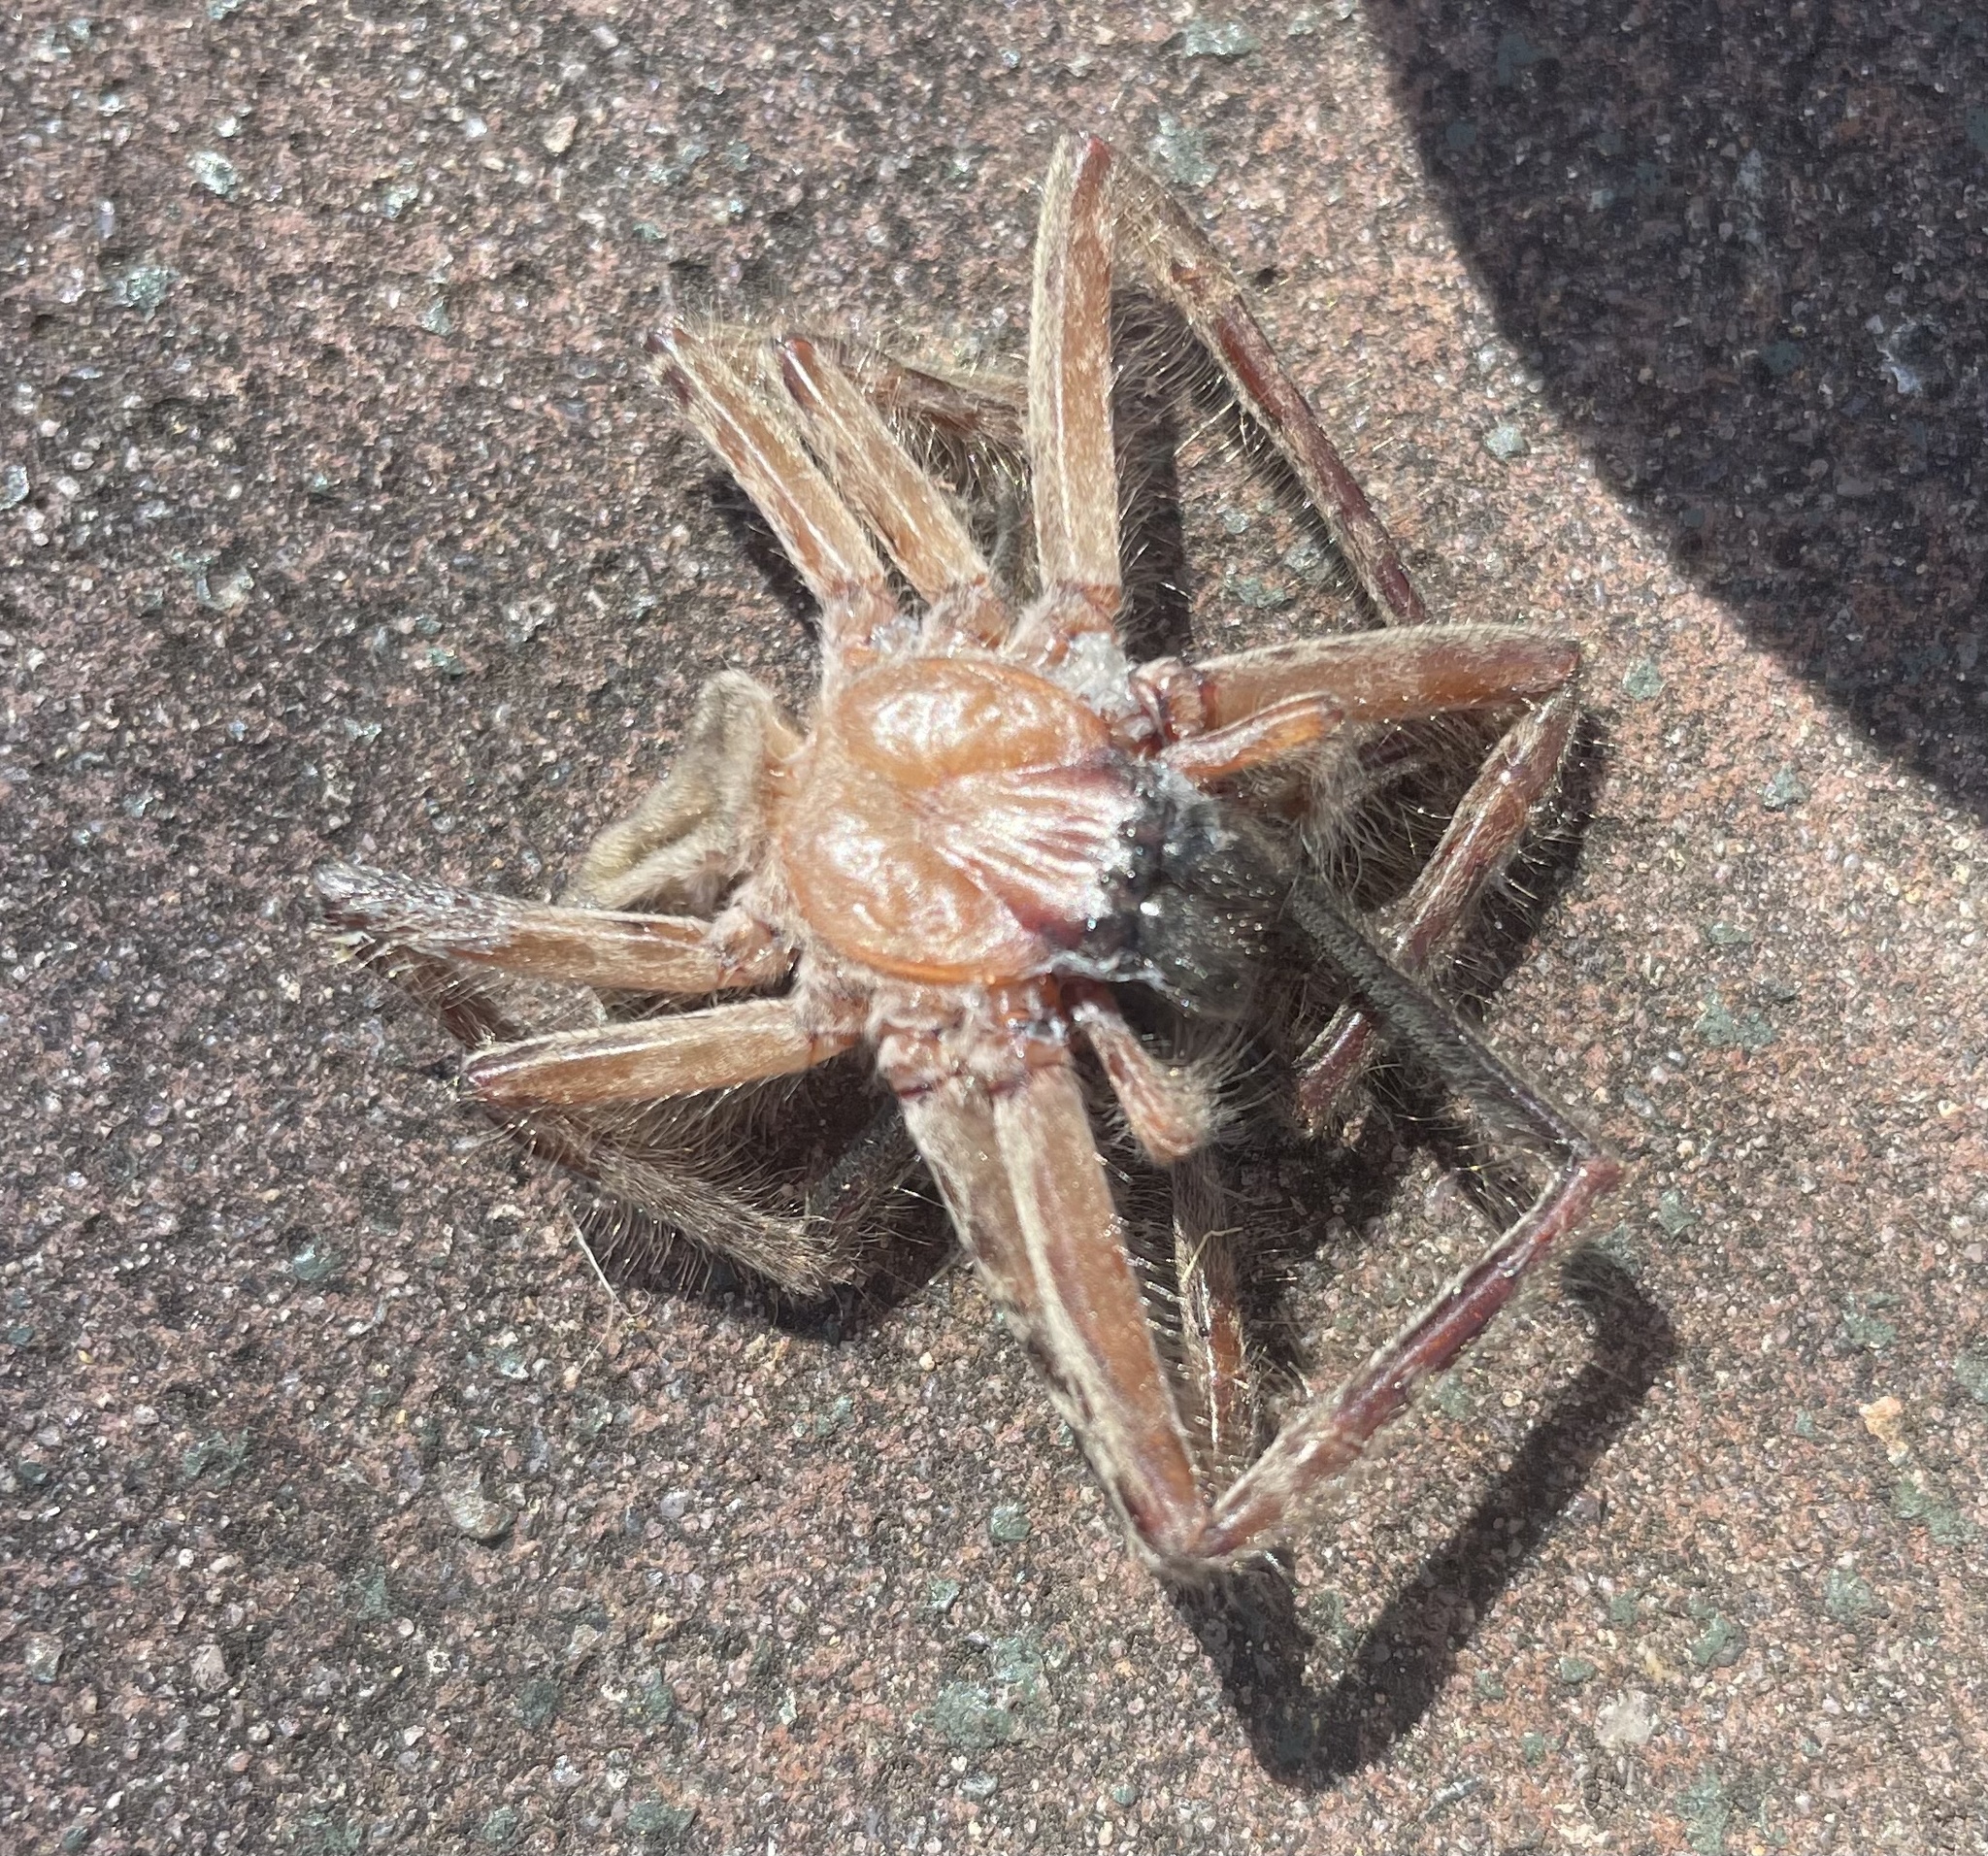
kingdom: Animalia
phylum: Arthropoda
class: Arachnida
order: Araneae
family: Sparassidae
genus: Delena
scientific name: Delena cancerides
